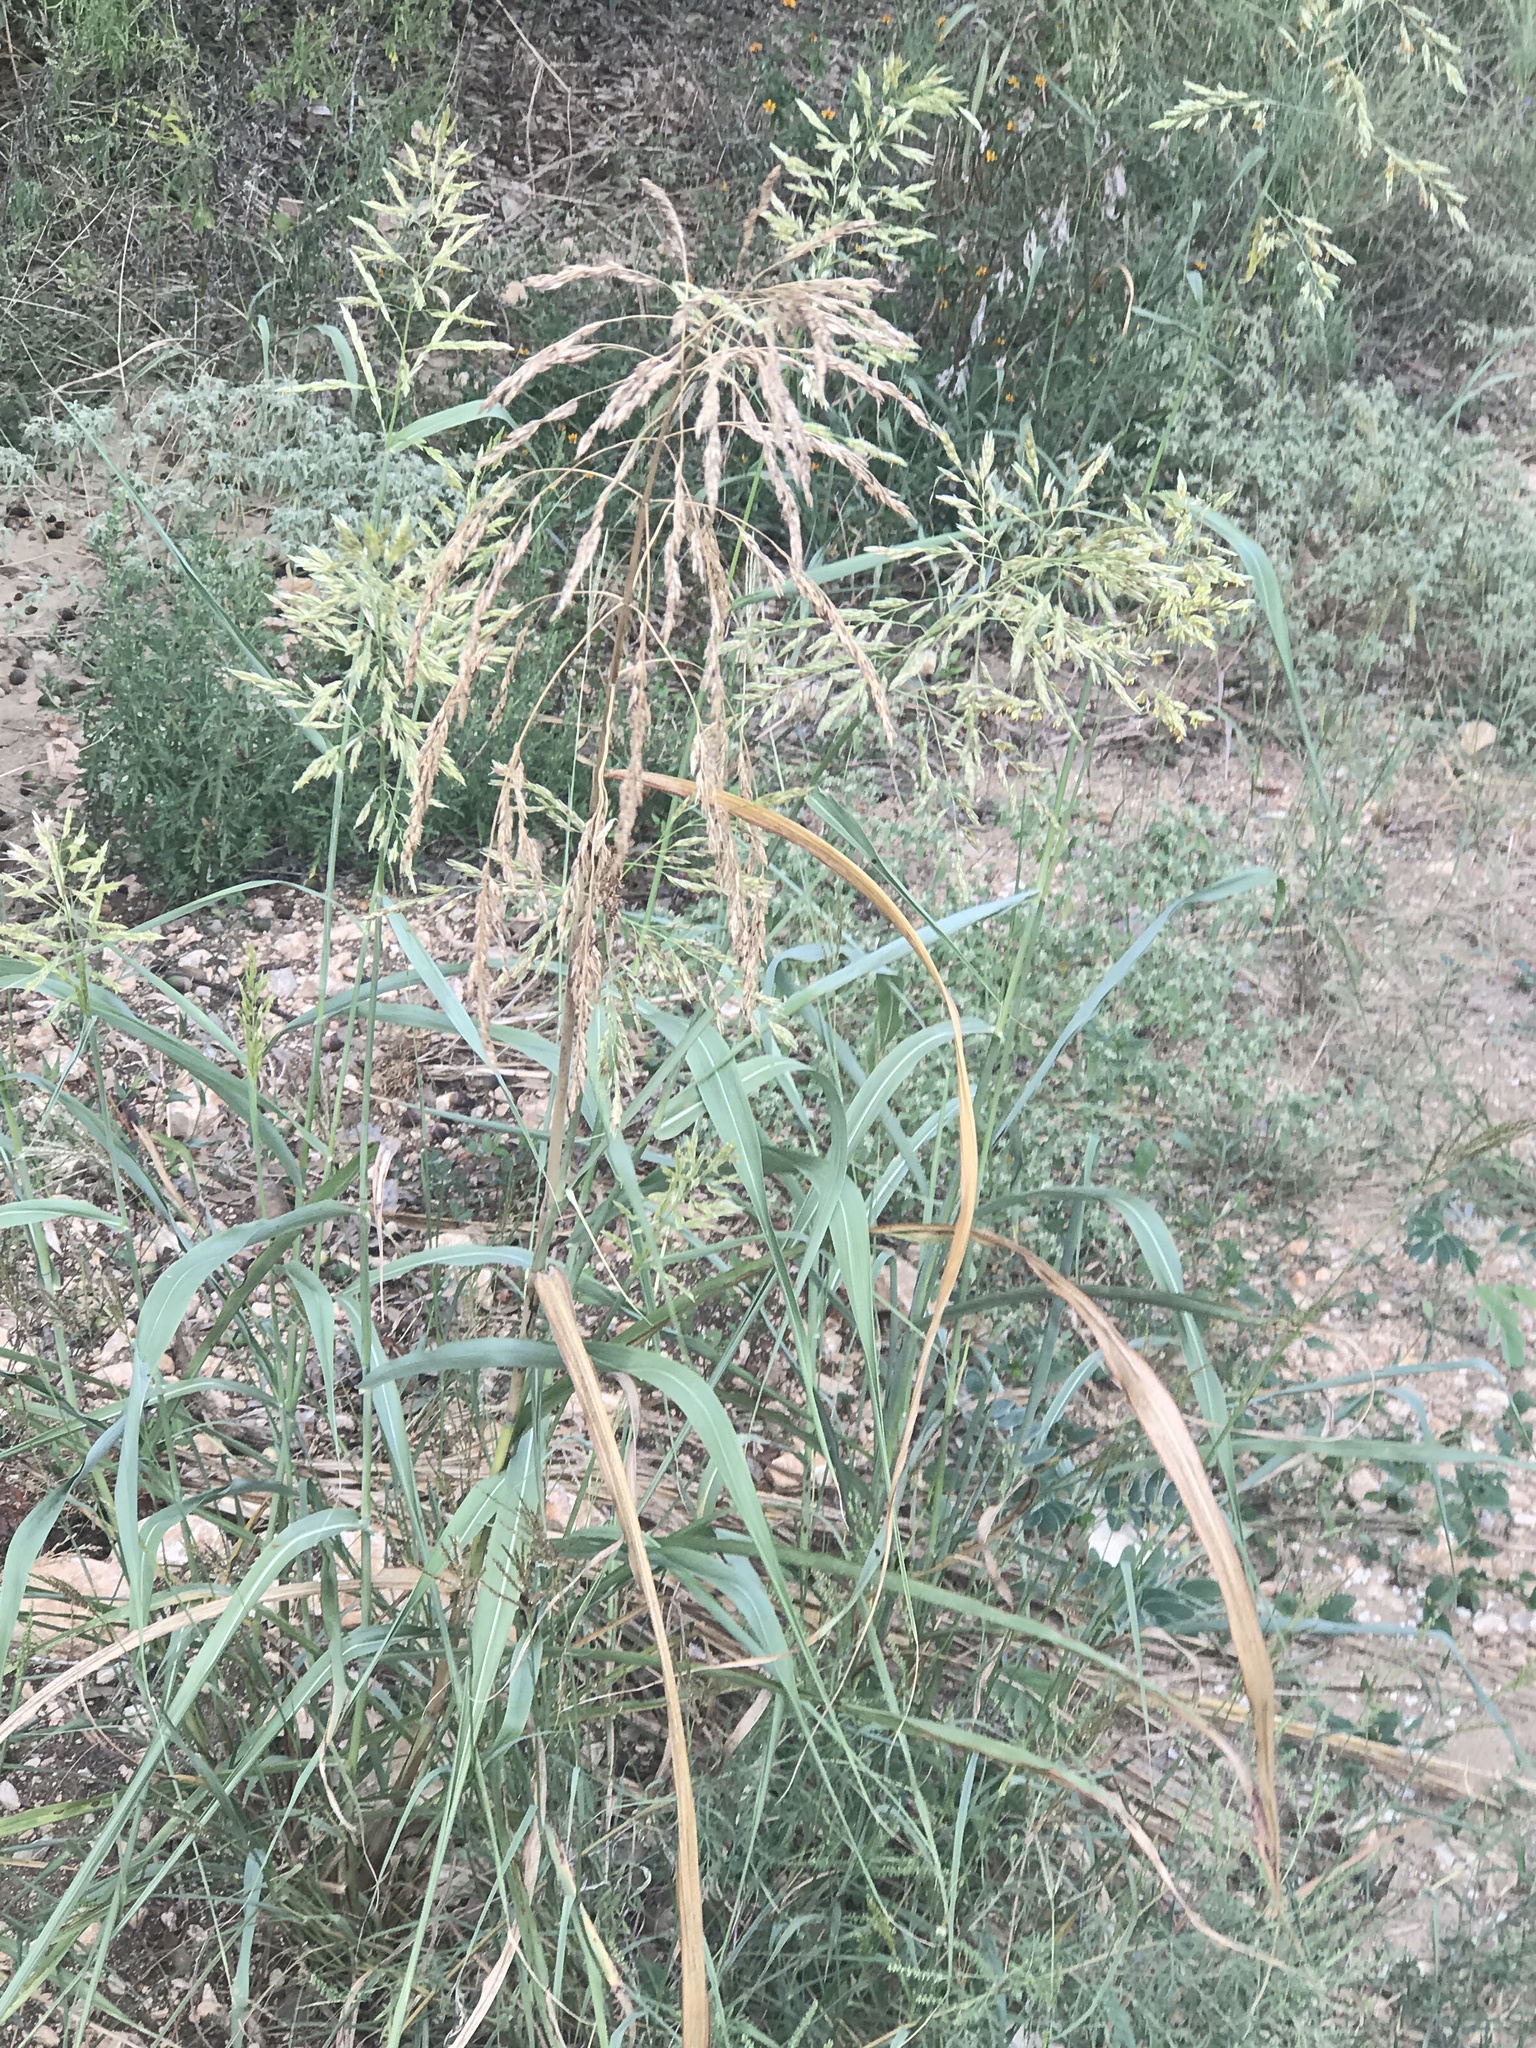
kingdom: Plantae
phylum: Tracheophyta
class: Liliopsida
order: Poales
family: Poaceae
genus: Sorghum
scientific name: Sorghum halepense
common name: Johnson-grass
